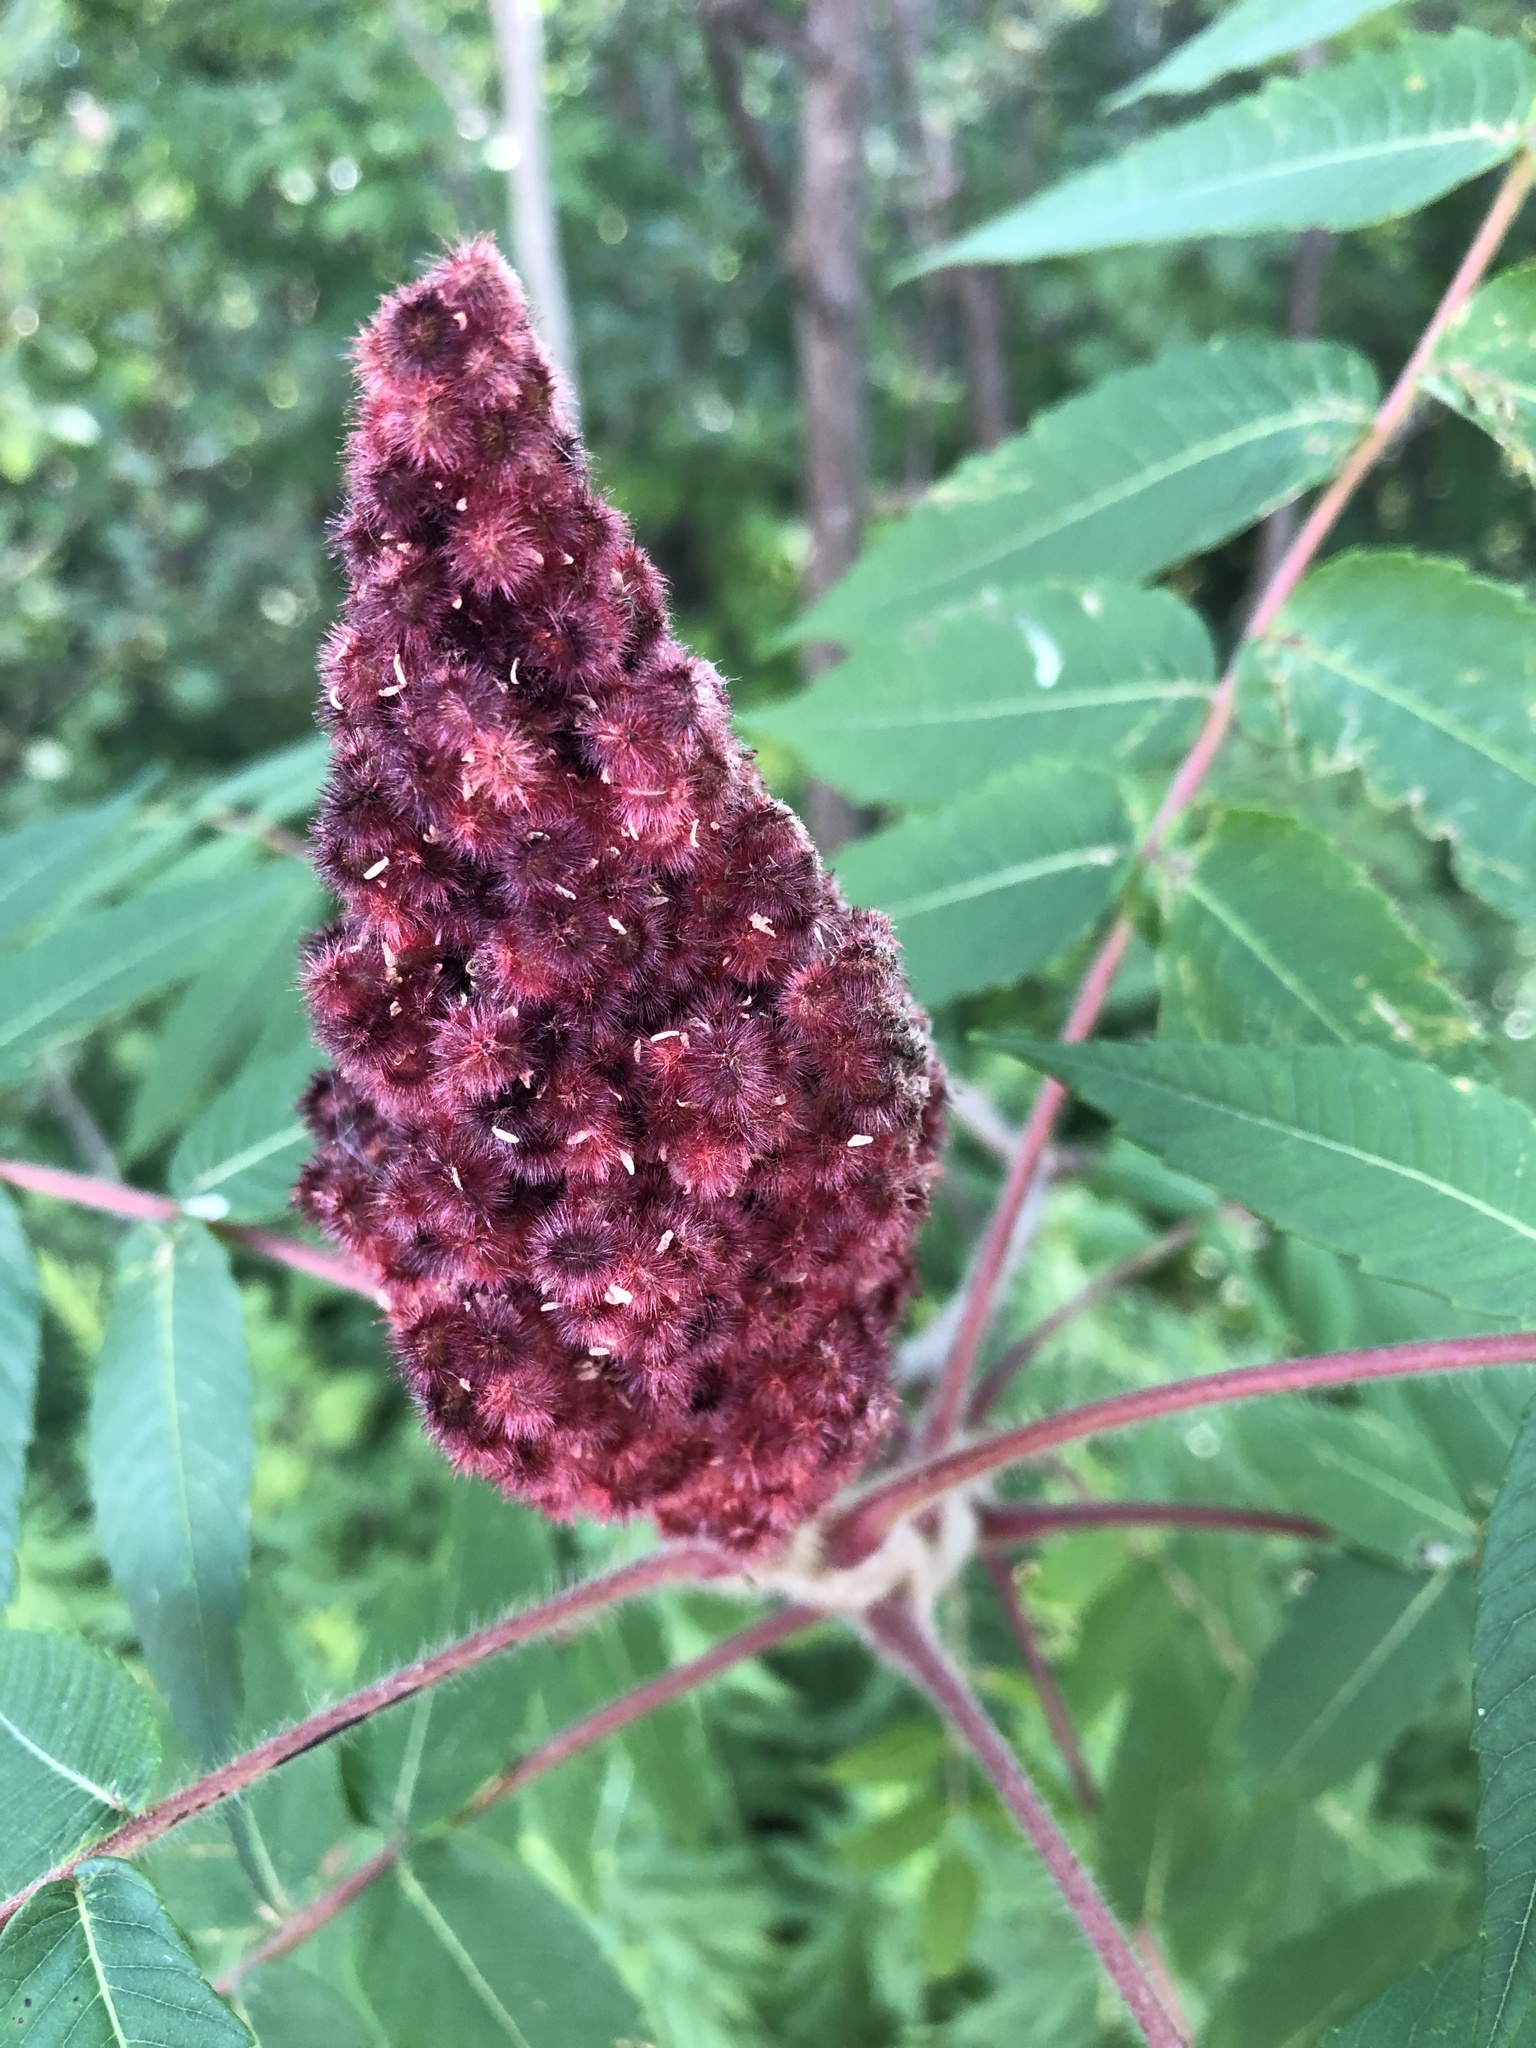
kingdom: Plantae
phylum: Tracheophyta
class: Magnoliopsida
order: Sapindales
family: Anacardiaceae
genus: Rhus
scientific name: Rhus typhina
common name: Staghorn sumac
